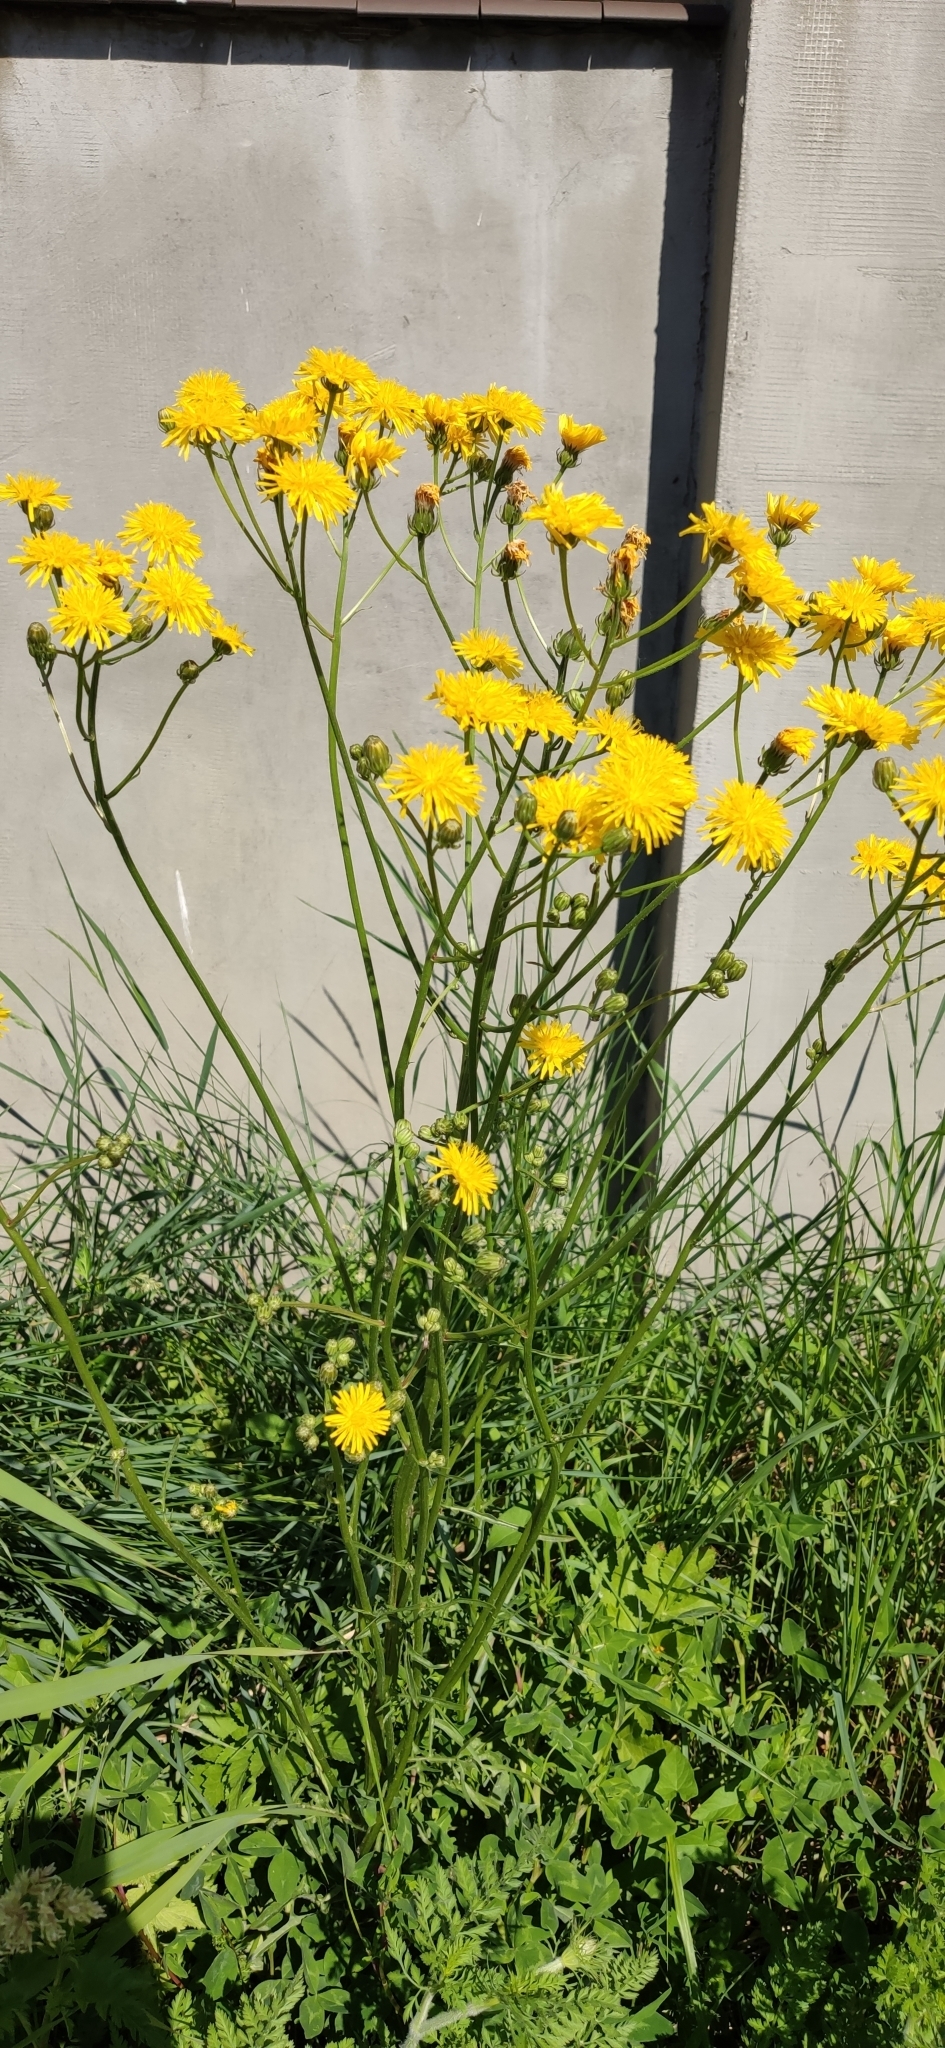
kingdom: Plantae
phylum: Tracheophyta
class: Magnoliopsida
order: Asterales
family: Asteraceae
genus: Crepis
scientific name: Crepis biennis
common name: Rough hawk's-beard
